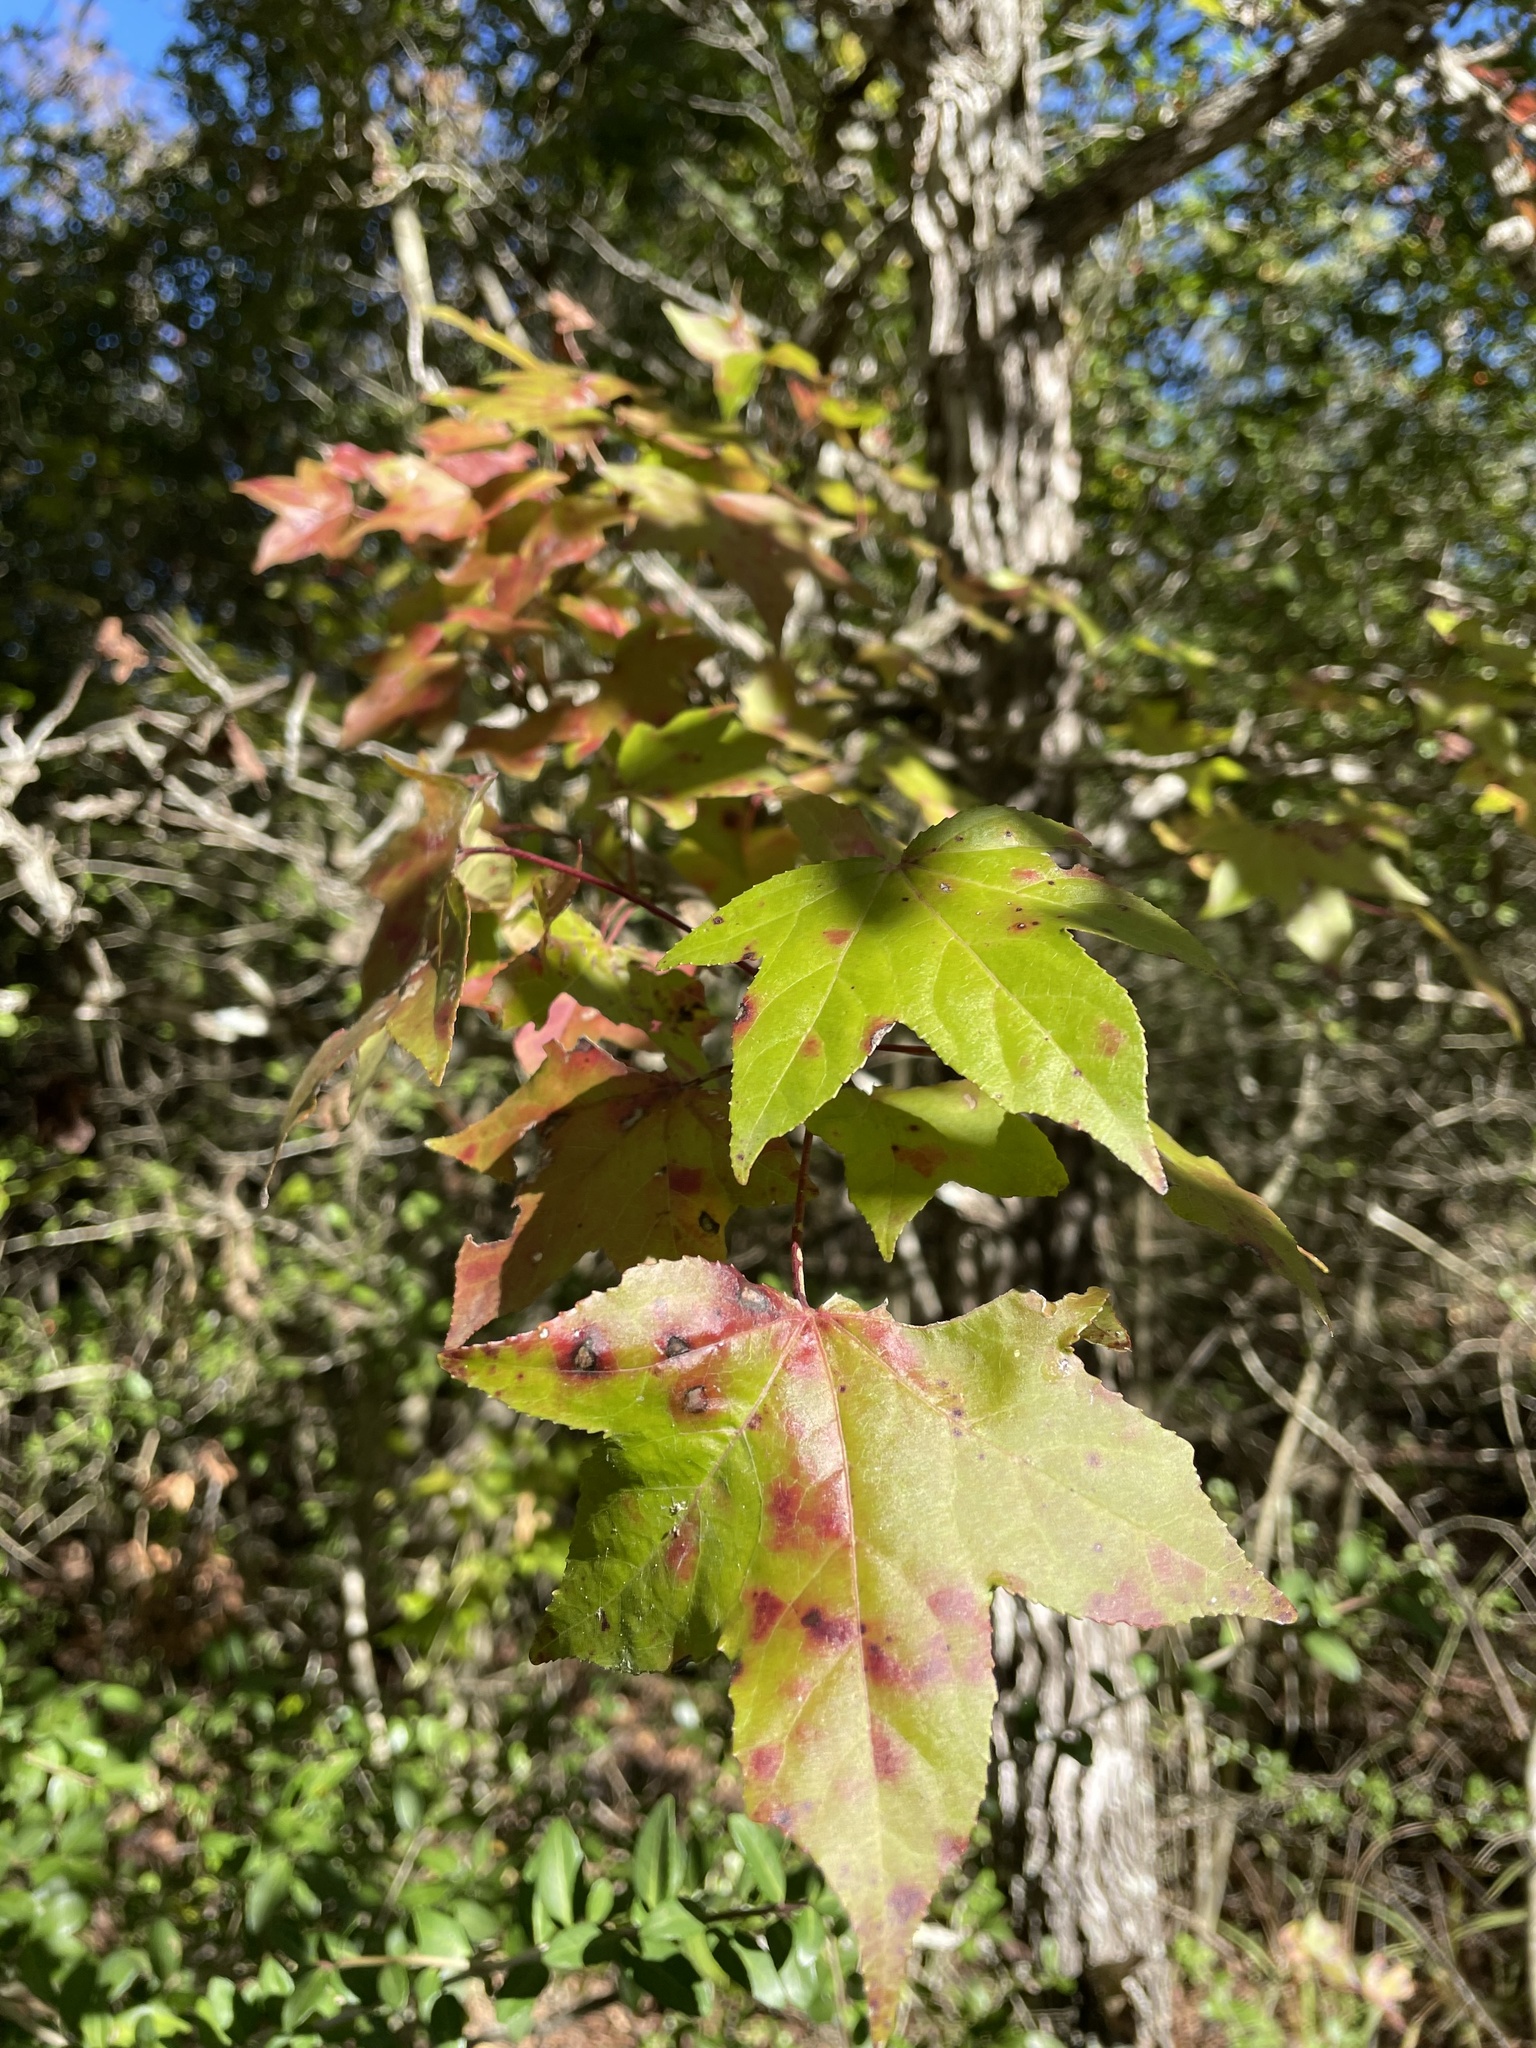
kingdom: Plantae
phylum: Tracheophyta
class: Magnoliopsida
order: Saxifragales
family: Altingiaceae
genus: Liquidambar
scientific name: Liquidambar styraciflua
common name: Sweet gum
